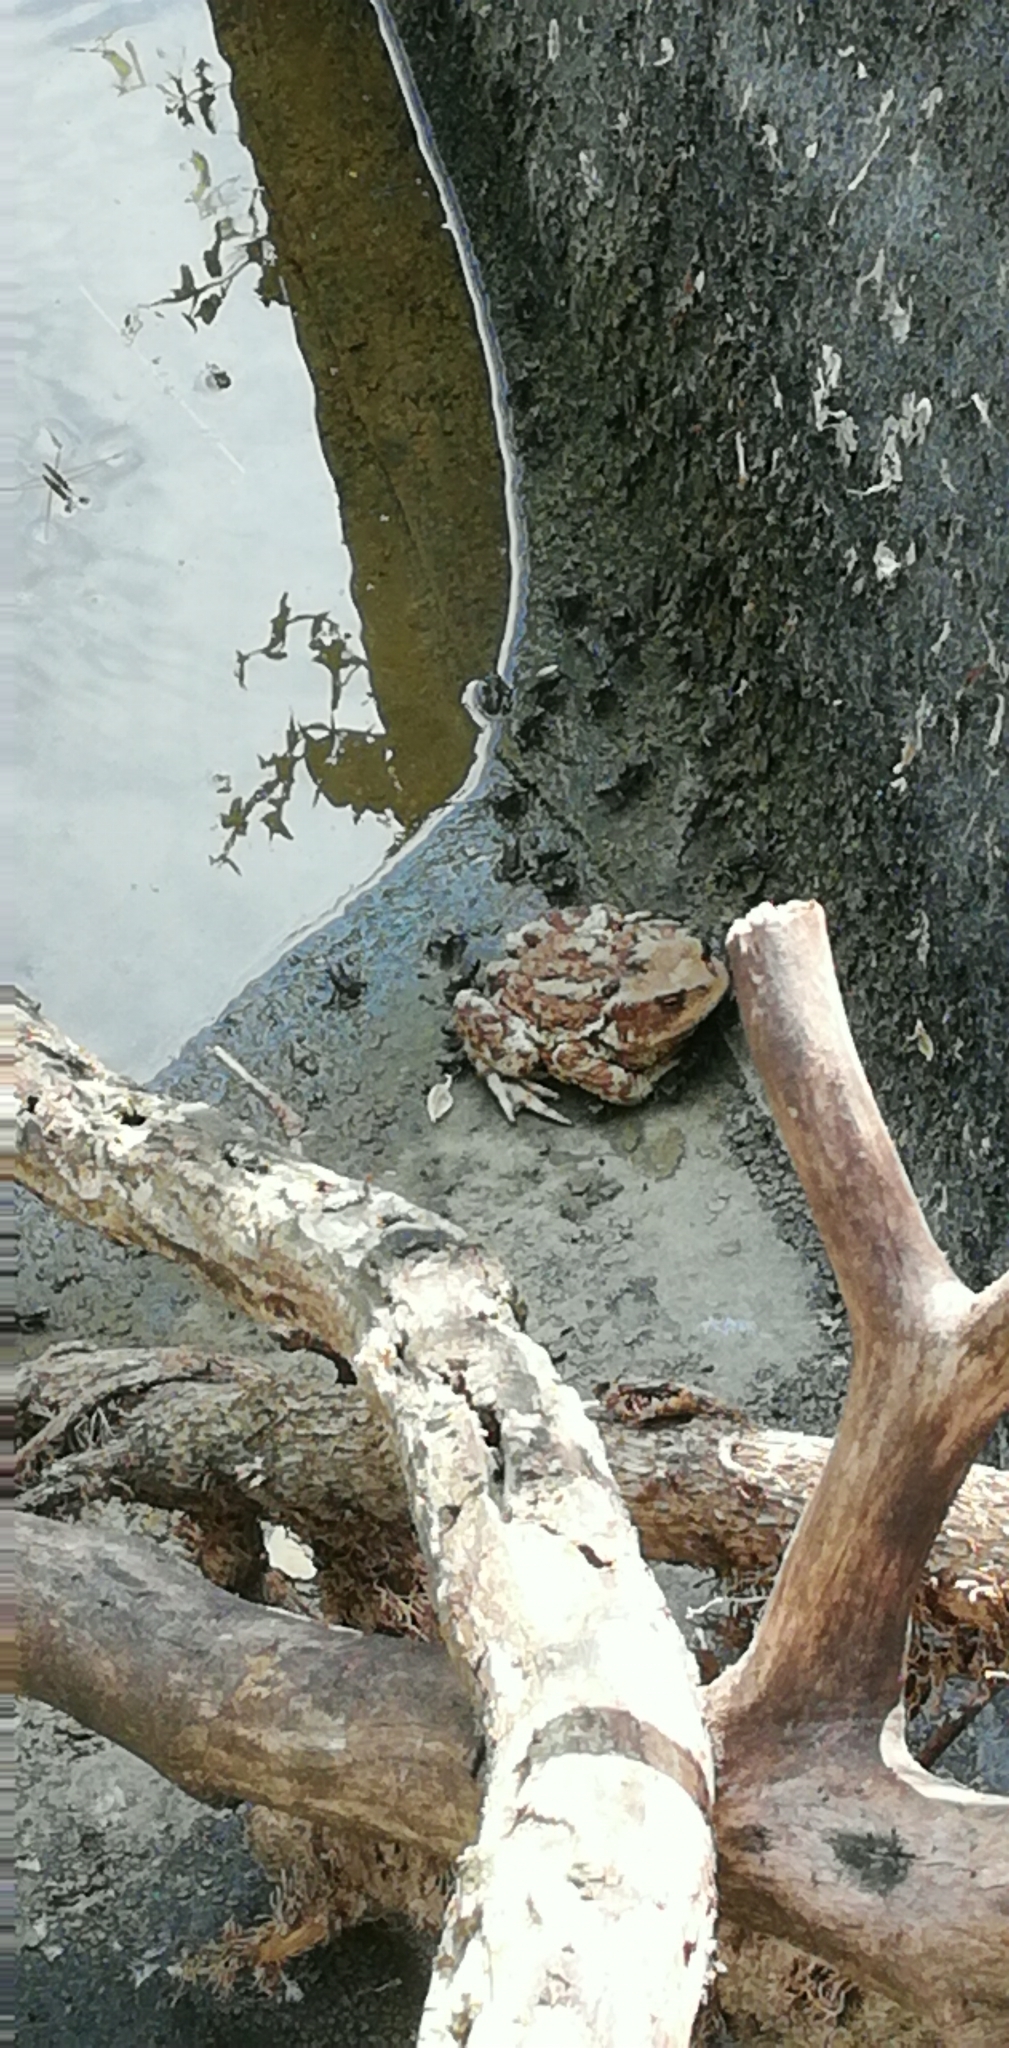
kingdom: Animalia
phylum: Chordata
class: Amphibia
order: Anura
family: Bufonidae
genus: Bufo
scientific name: Bufo bufo
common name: Common toad
